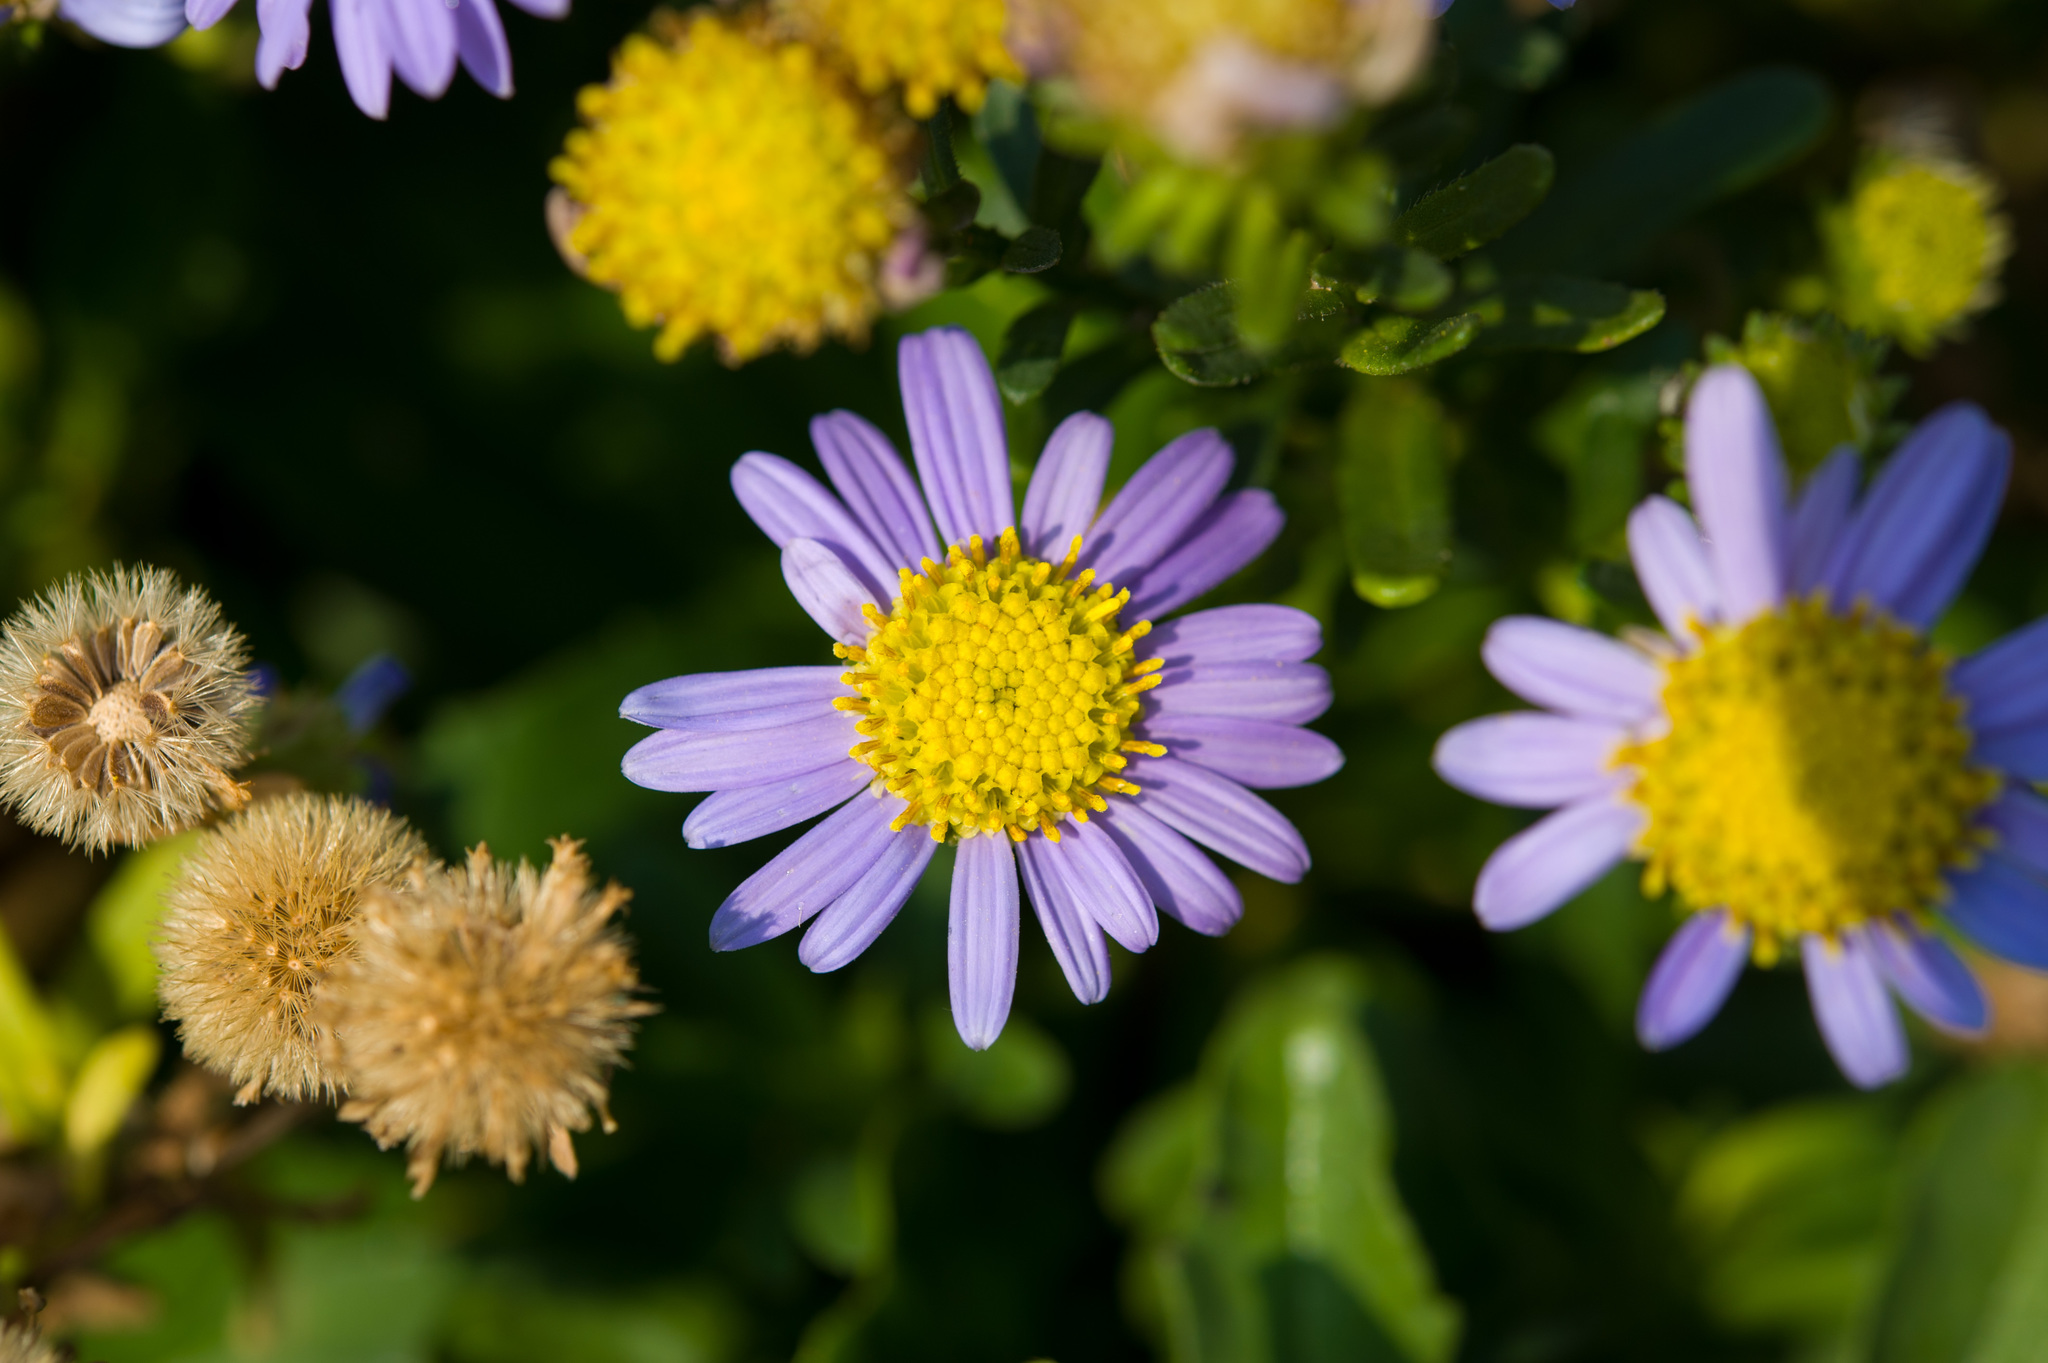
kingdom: Plantae
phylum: Tracheophyta
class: Magnoliopsida
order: Asterales
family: Asteraceae
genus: Heteropappus
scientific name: Heteropappus ciliosus
